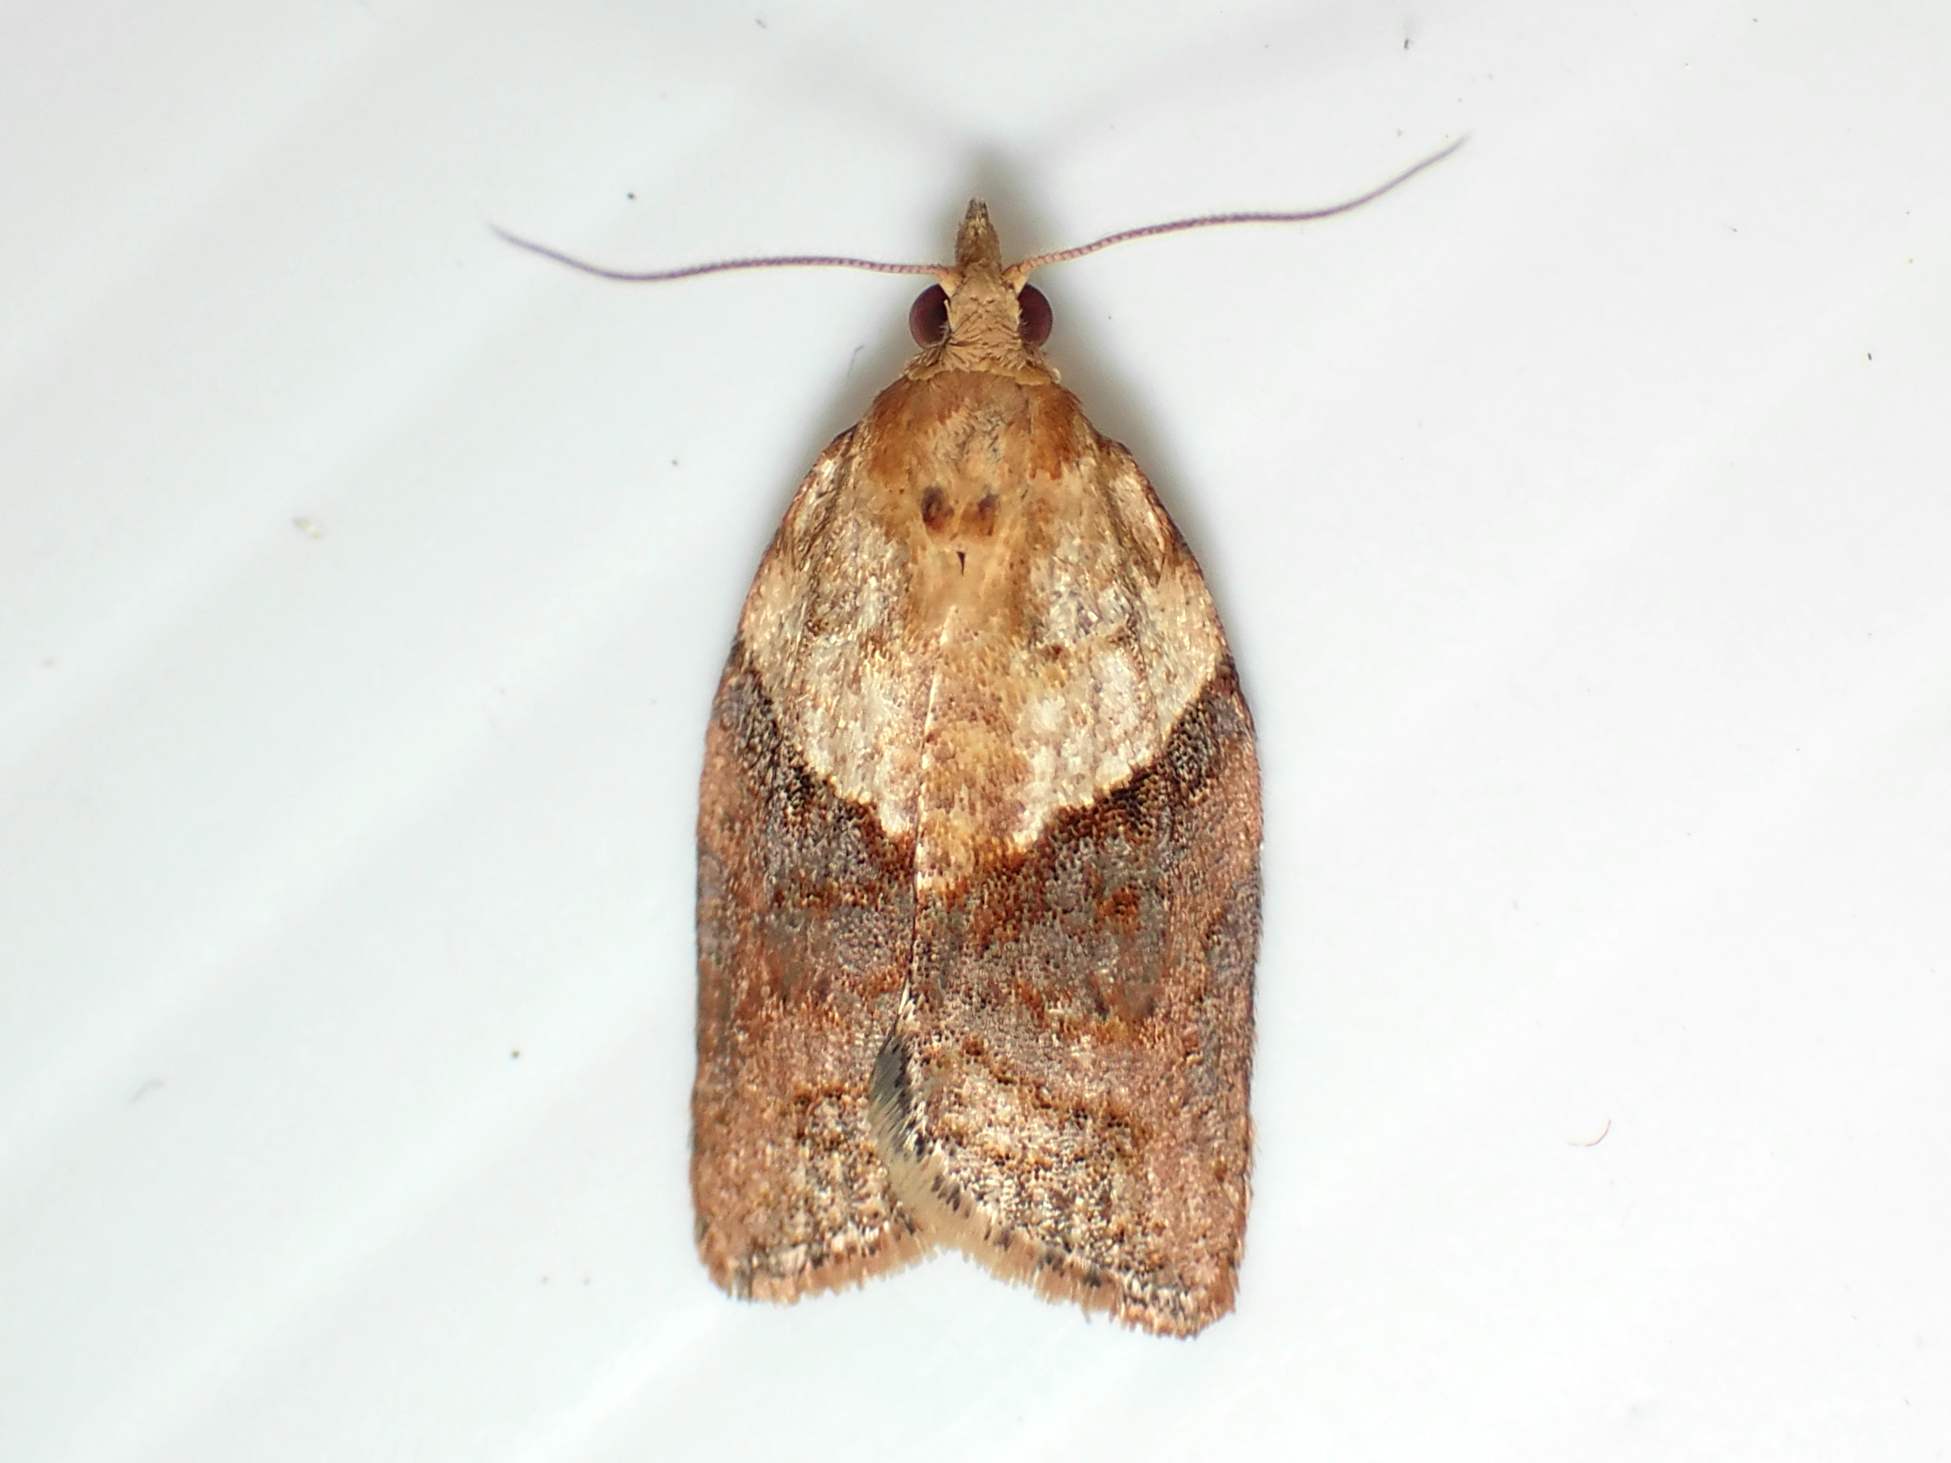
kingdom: Animalia
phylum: Arthropoda
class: Insecta
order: Lepidoptera
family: Tortricidae
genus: Epiphyas
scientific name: Epiphyas postvittana
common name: Light brown apple moth
